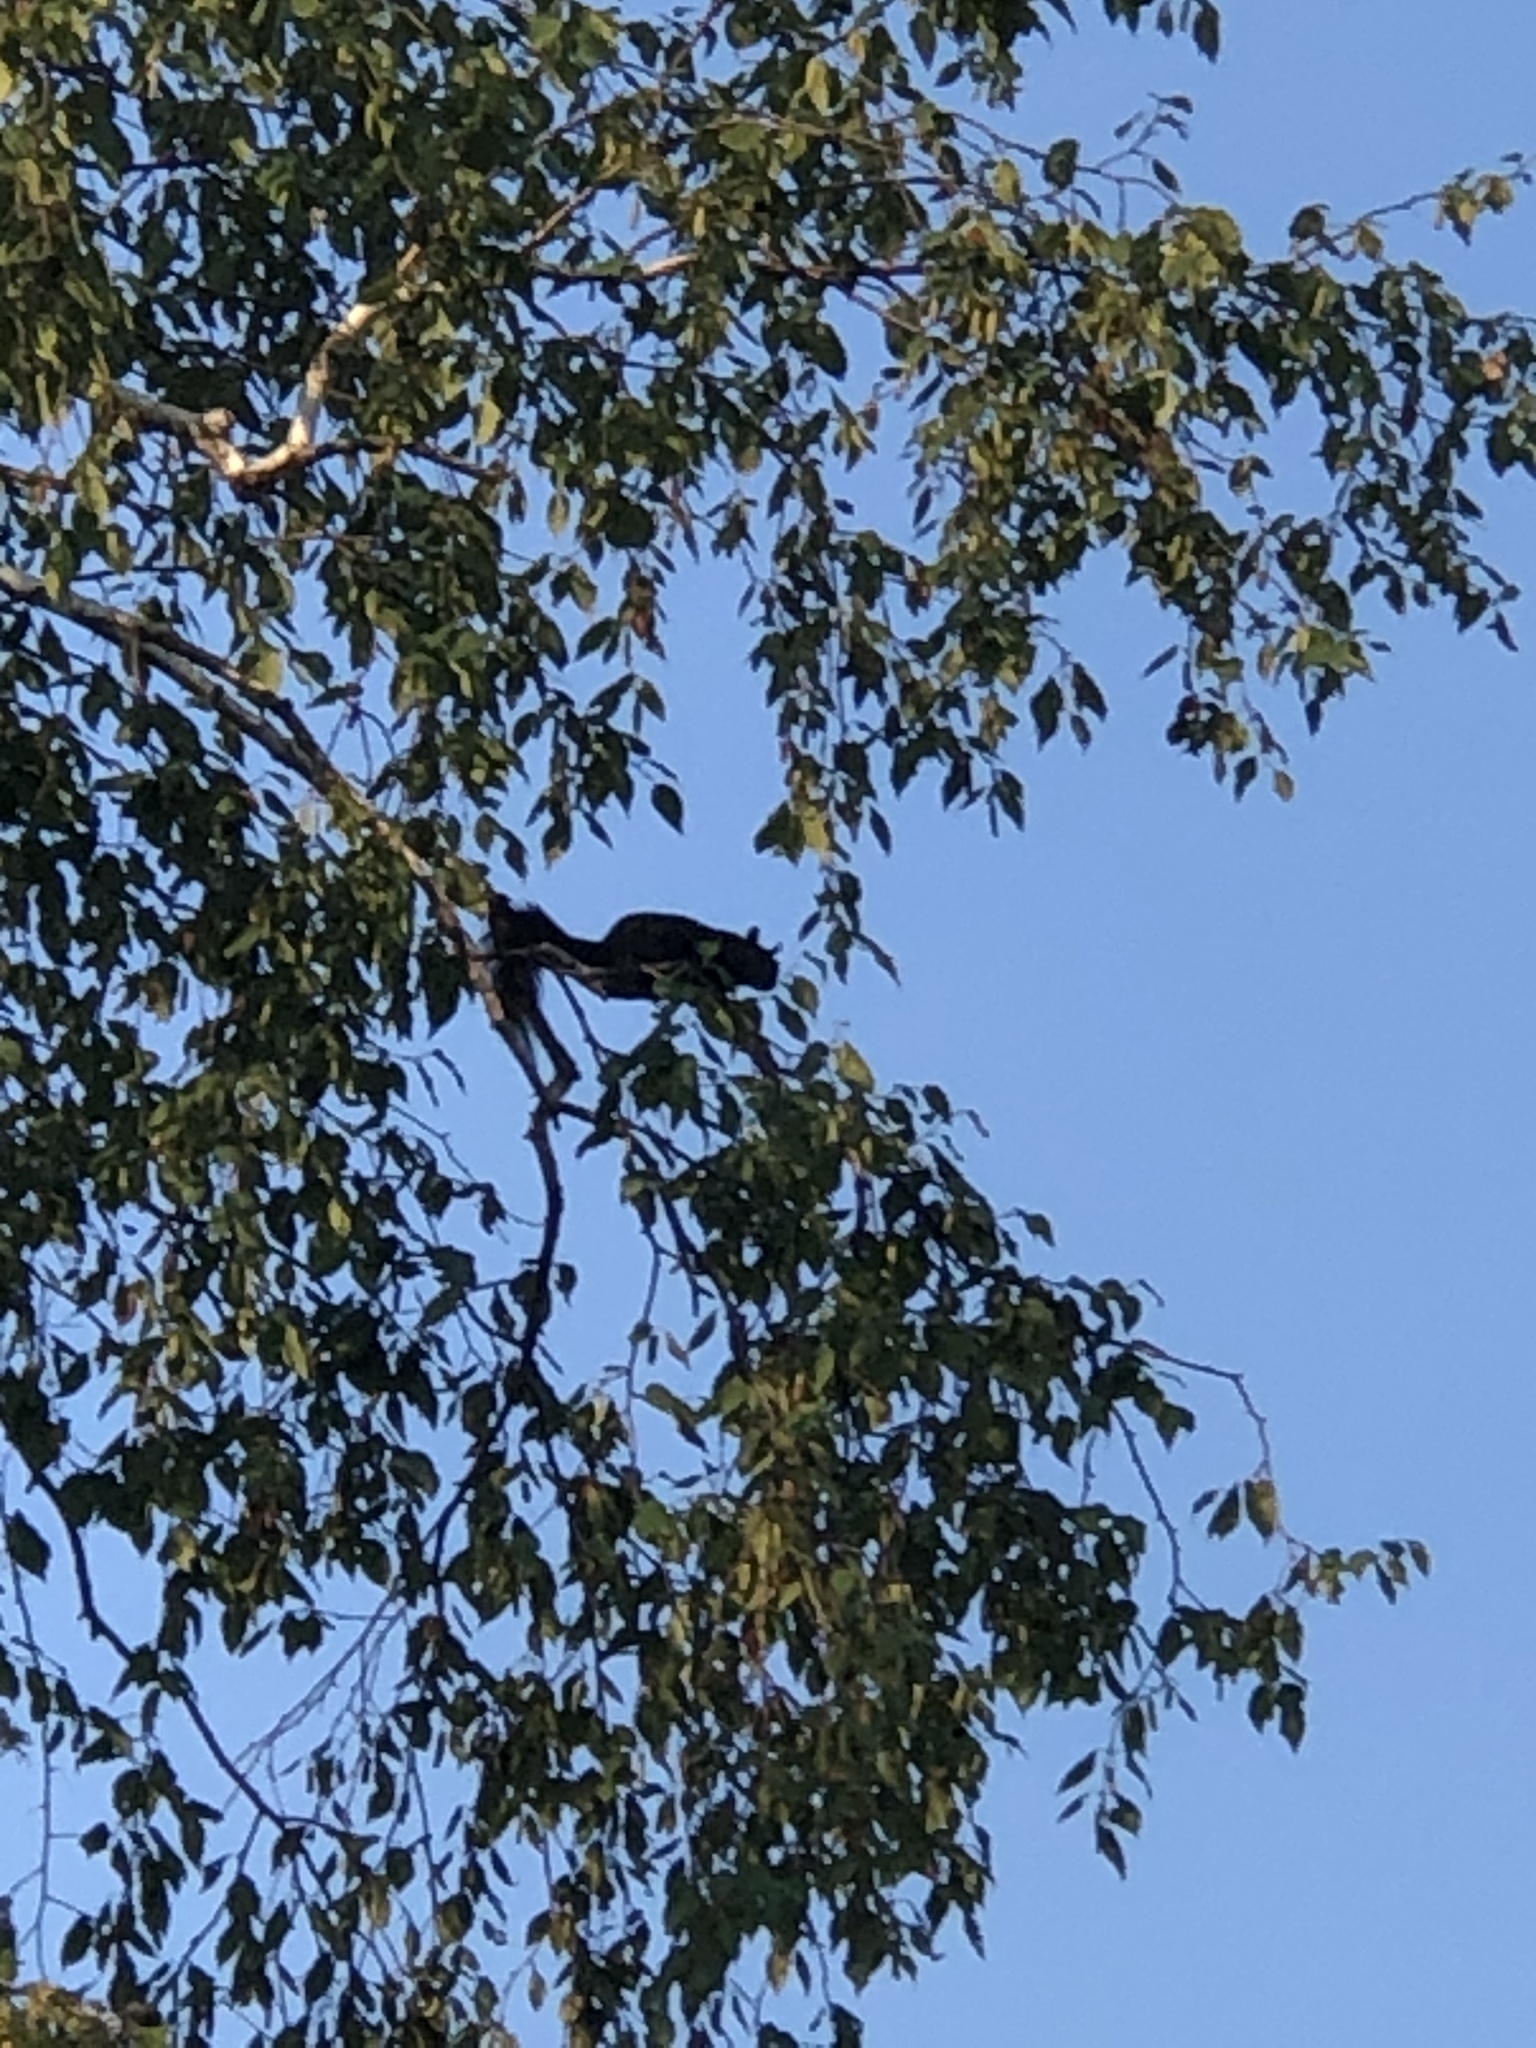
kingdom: Animalia
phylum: Chordata
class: Mammalia
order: Rodentia
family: Sciuridae
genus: Sciurus
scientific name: Sciurus carolinensis
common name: Eastern gray squirrel
